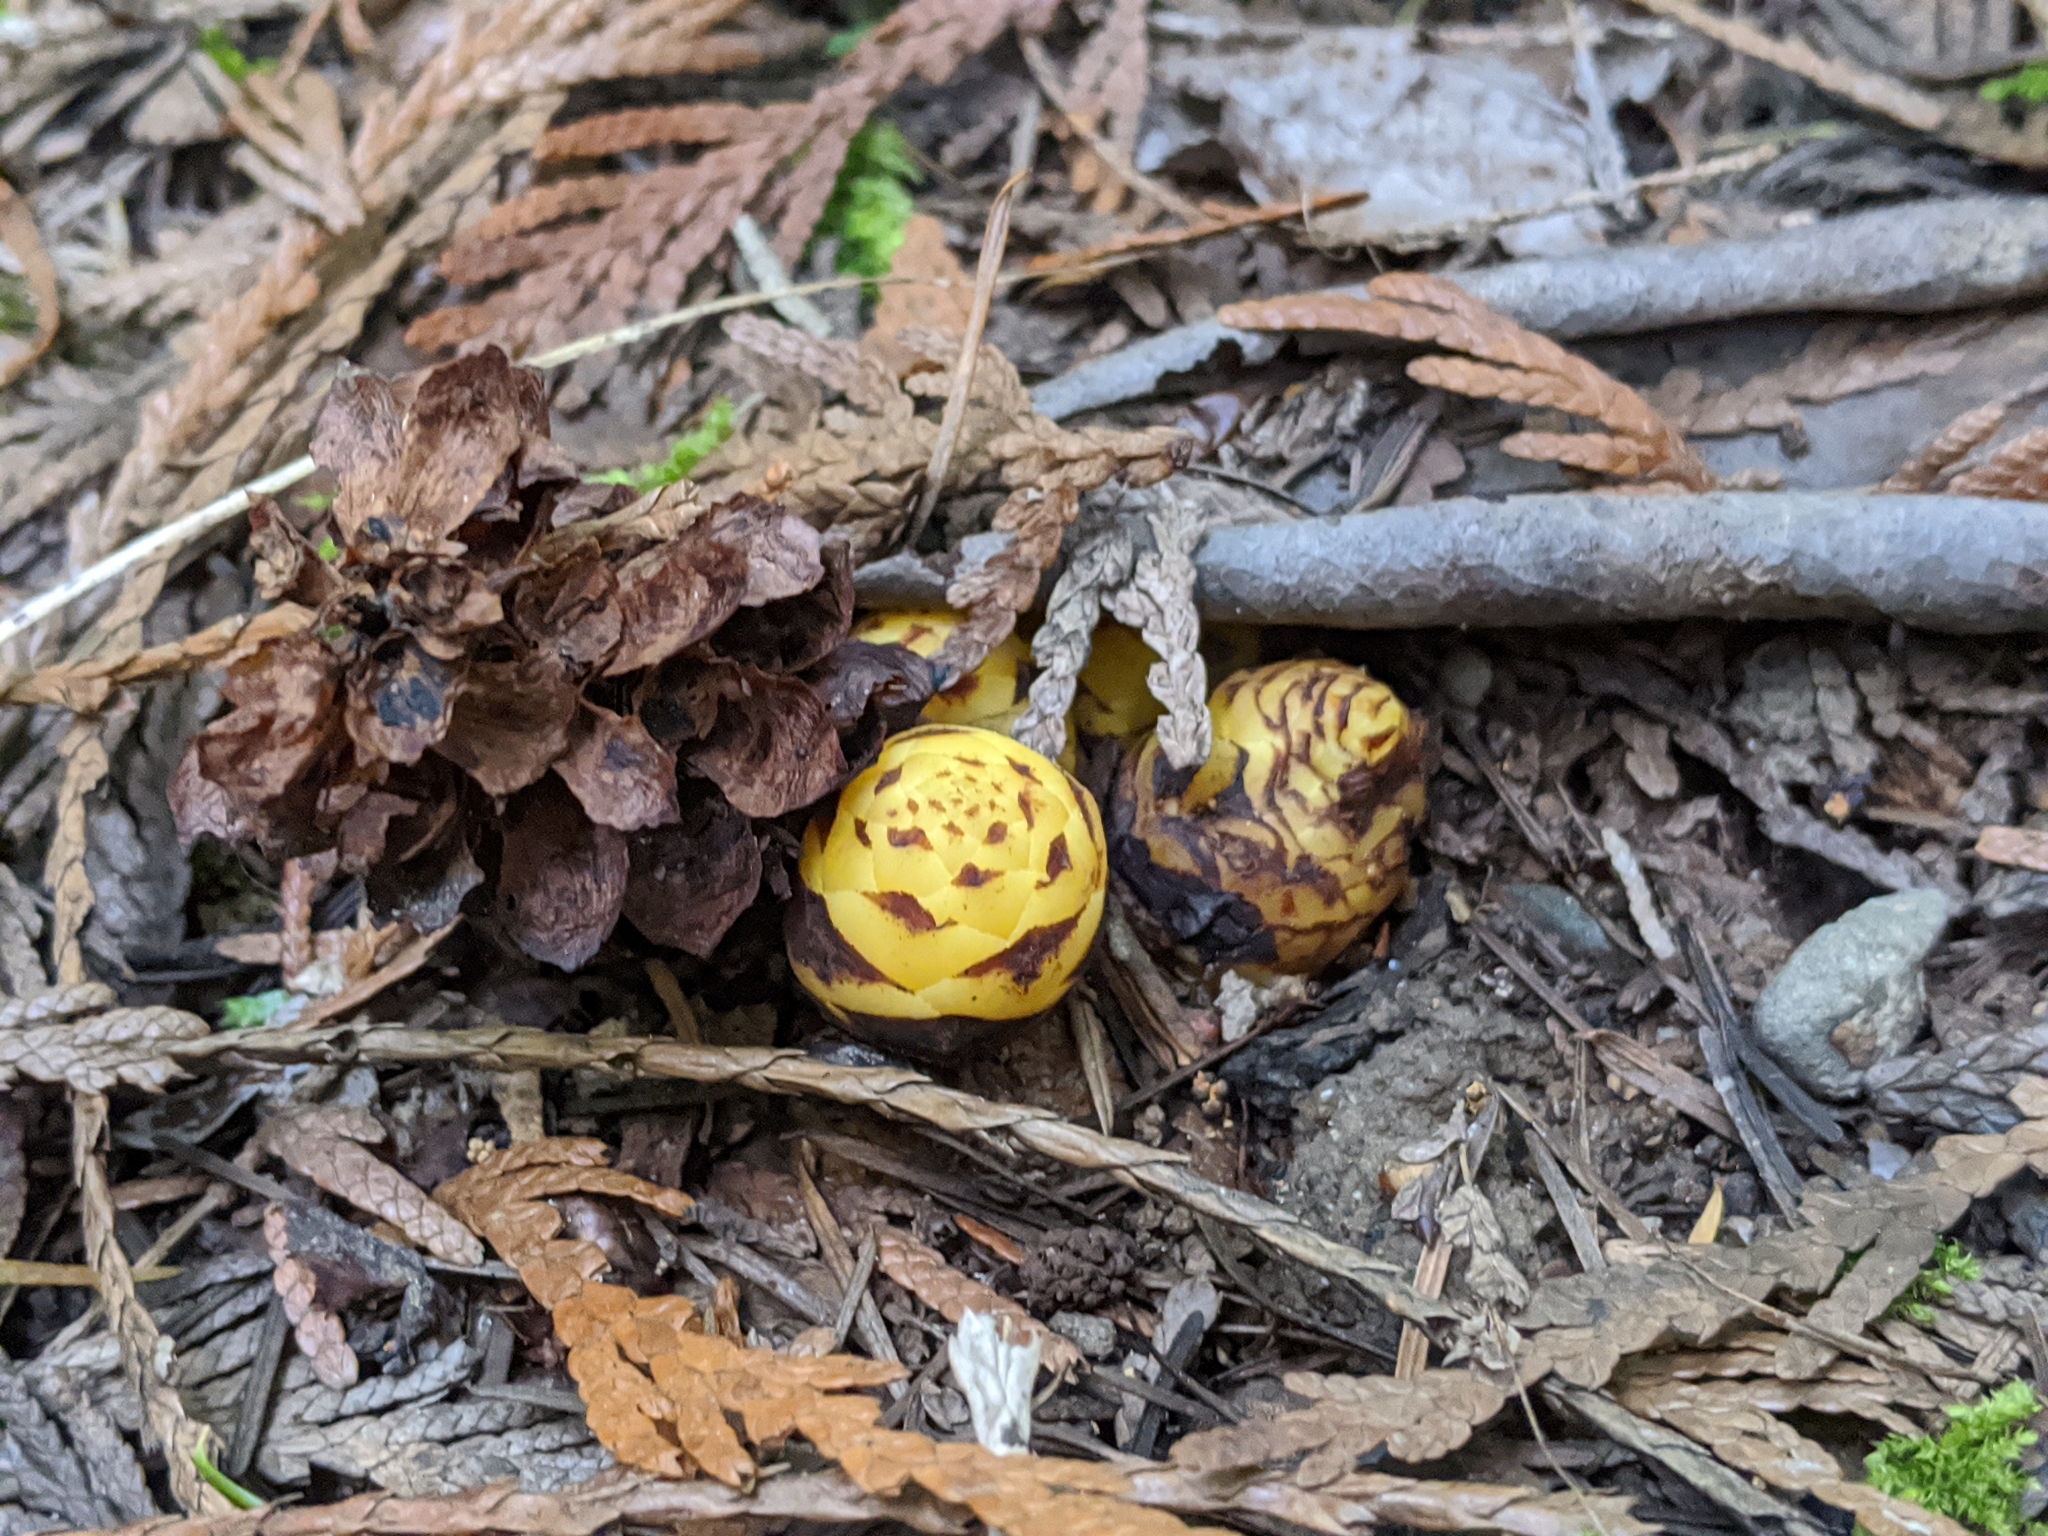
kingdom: Plantae
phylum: Tracheophyta
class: Magnoliopsida
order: Lamiales
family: Orobanchaceae
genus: Kopsiopsis
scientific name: Kopsiopsis hookeri
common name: Hooker's groundcone
